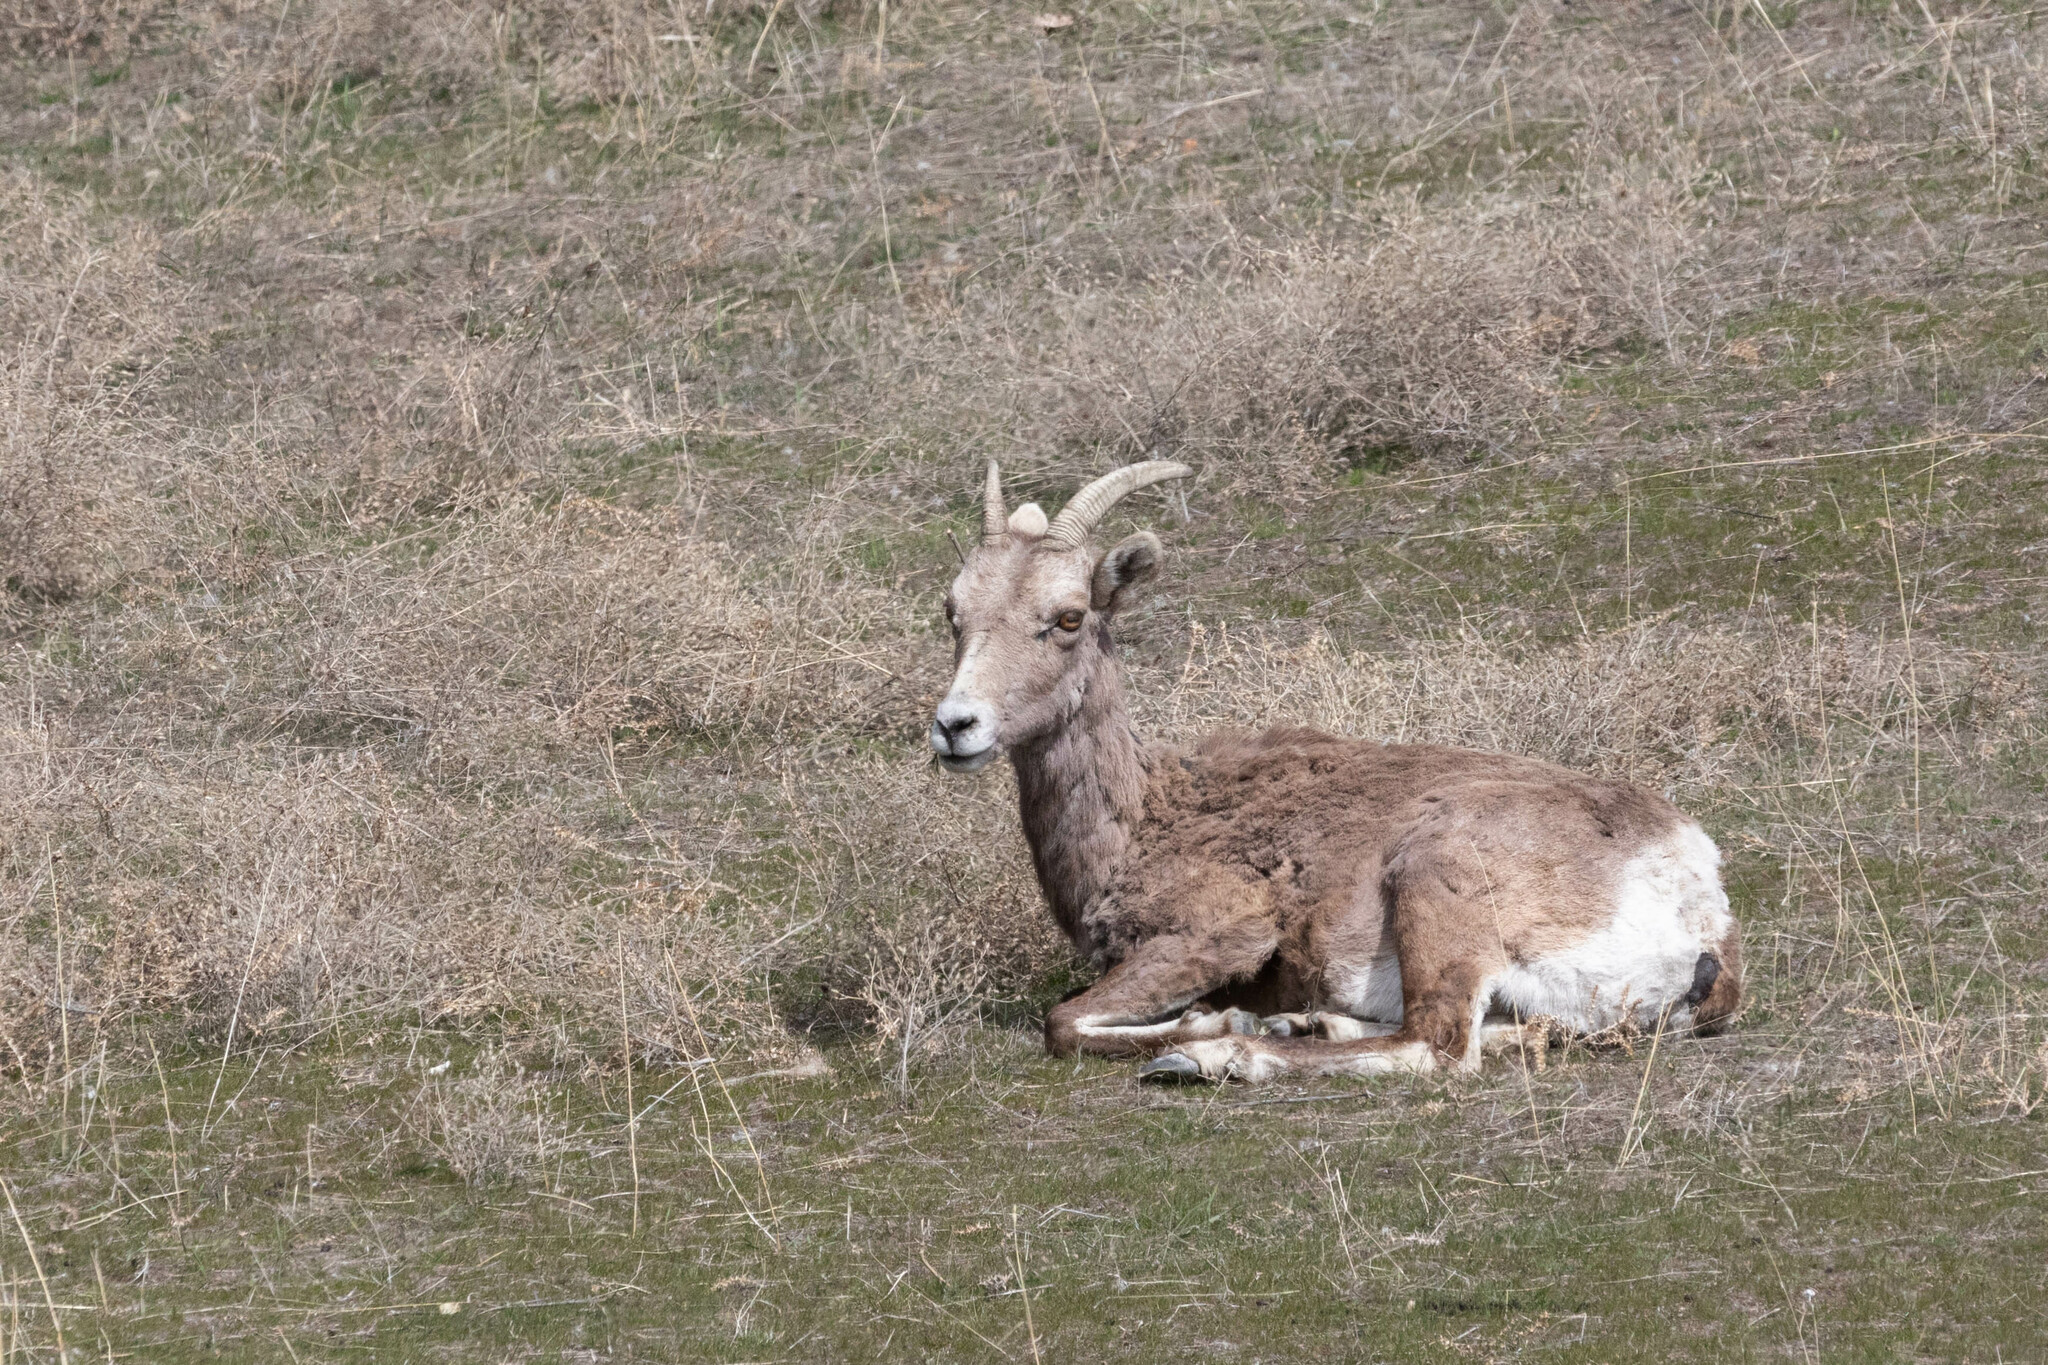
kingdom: Animalia
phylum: Chordata
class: Mammalia
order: Artiodactyla
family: Bovidae
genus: Ovis
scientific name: Ovis canadensis
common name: Bighorn sheep
